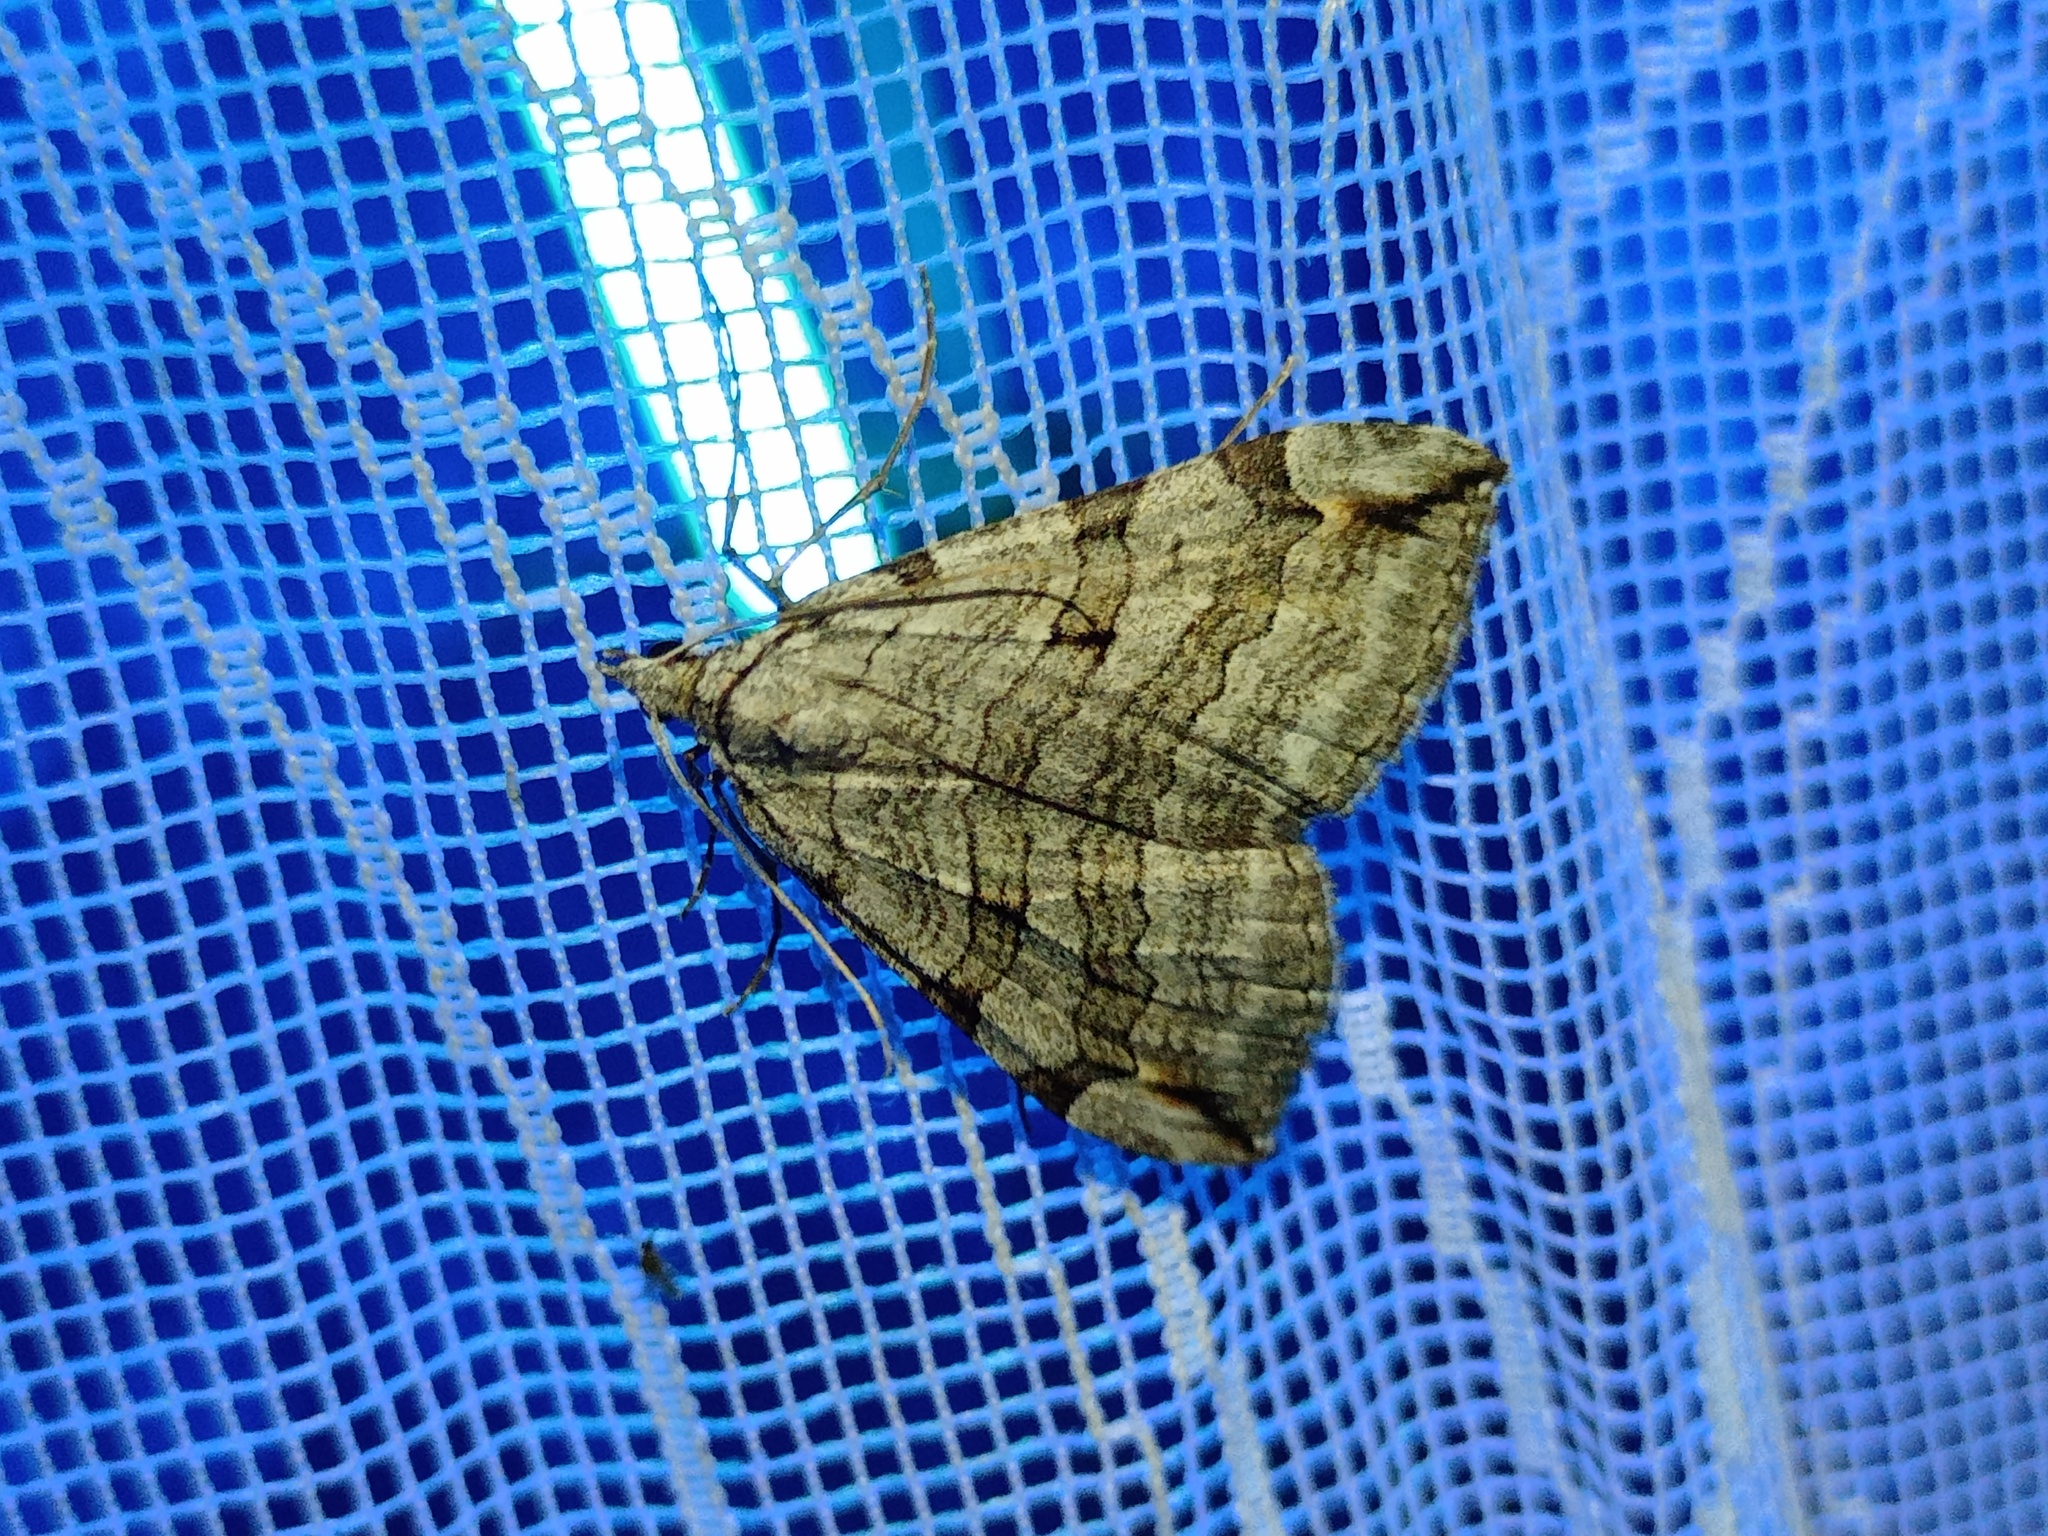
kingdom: Animalia
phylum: Arthropoda
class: Insecta
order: Lepidoptera
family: Geometridae
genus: Aplocera
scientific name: Aplocera plagiata
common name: Treble-bar
